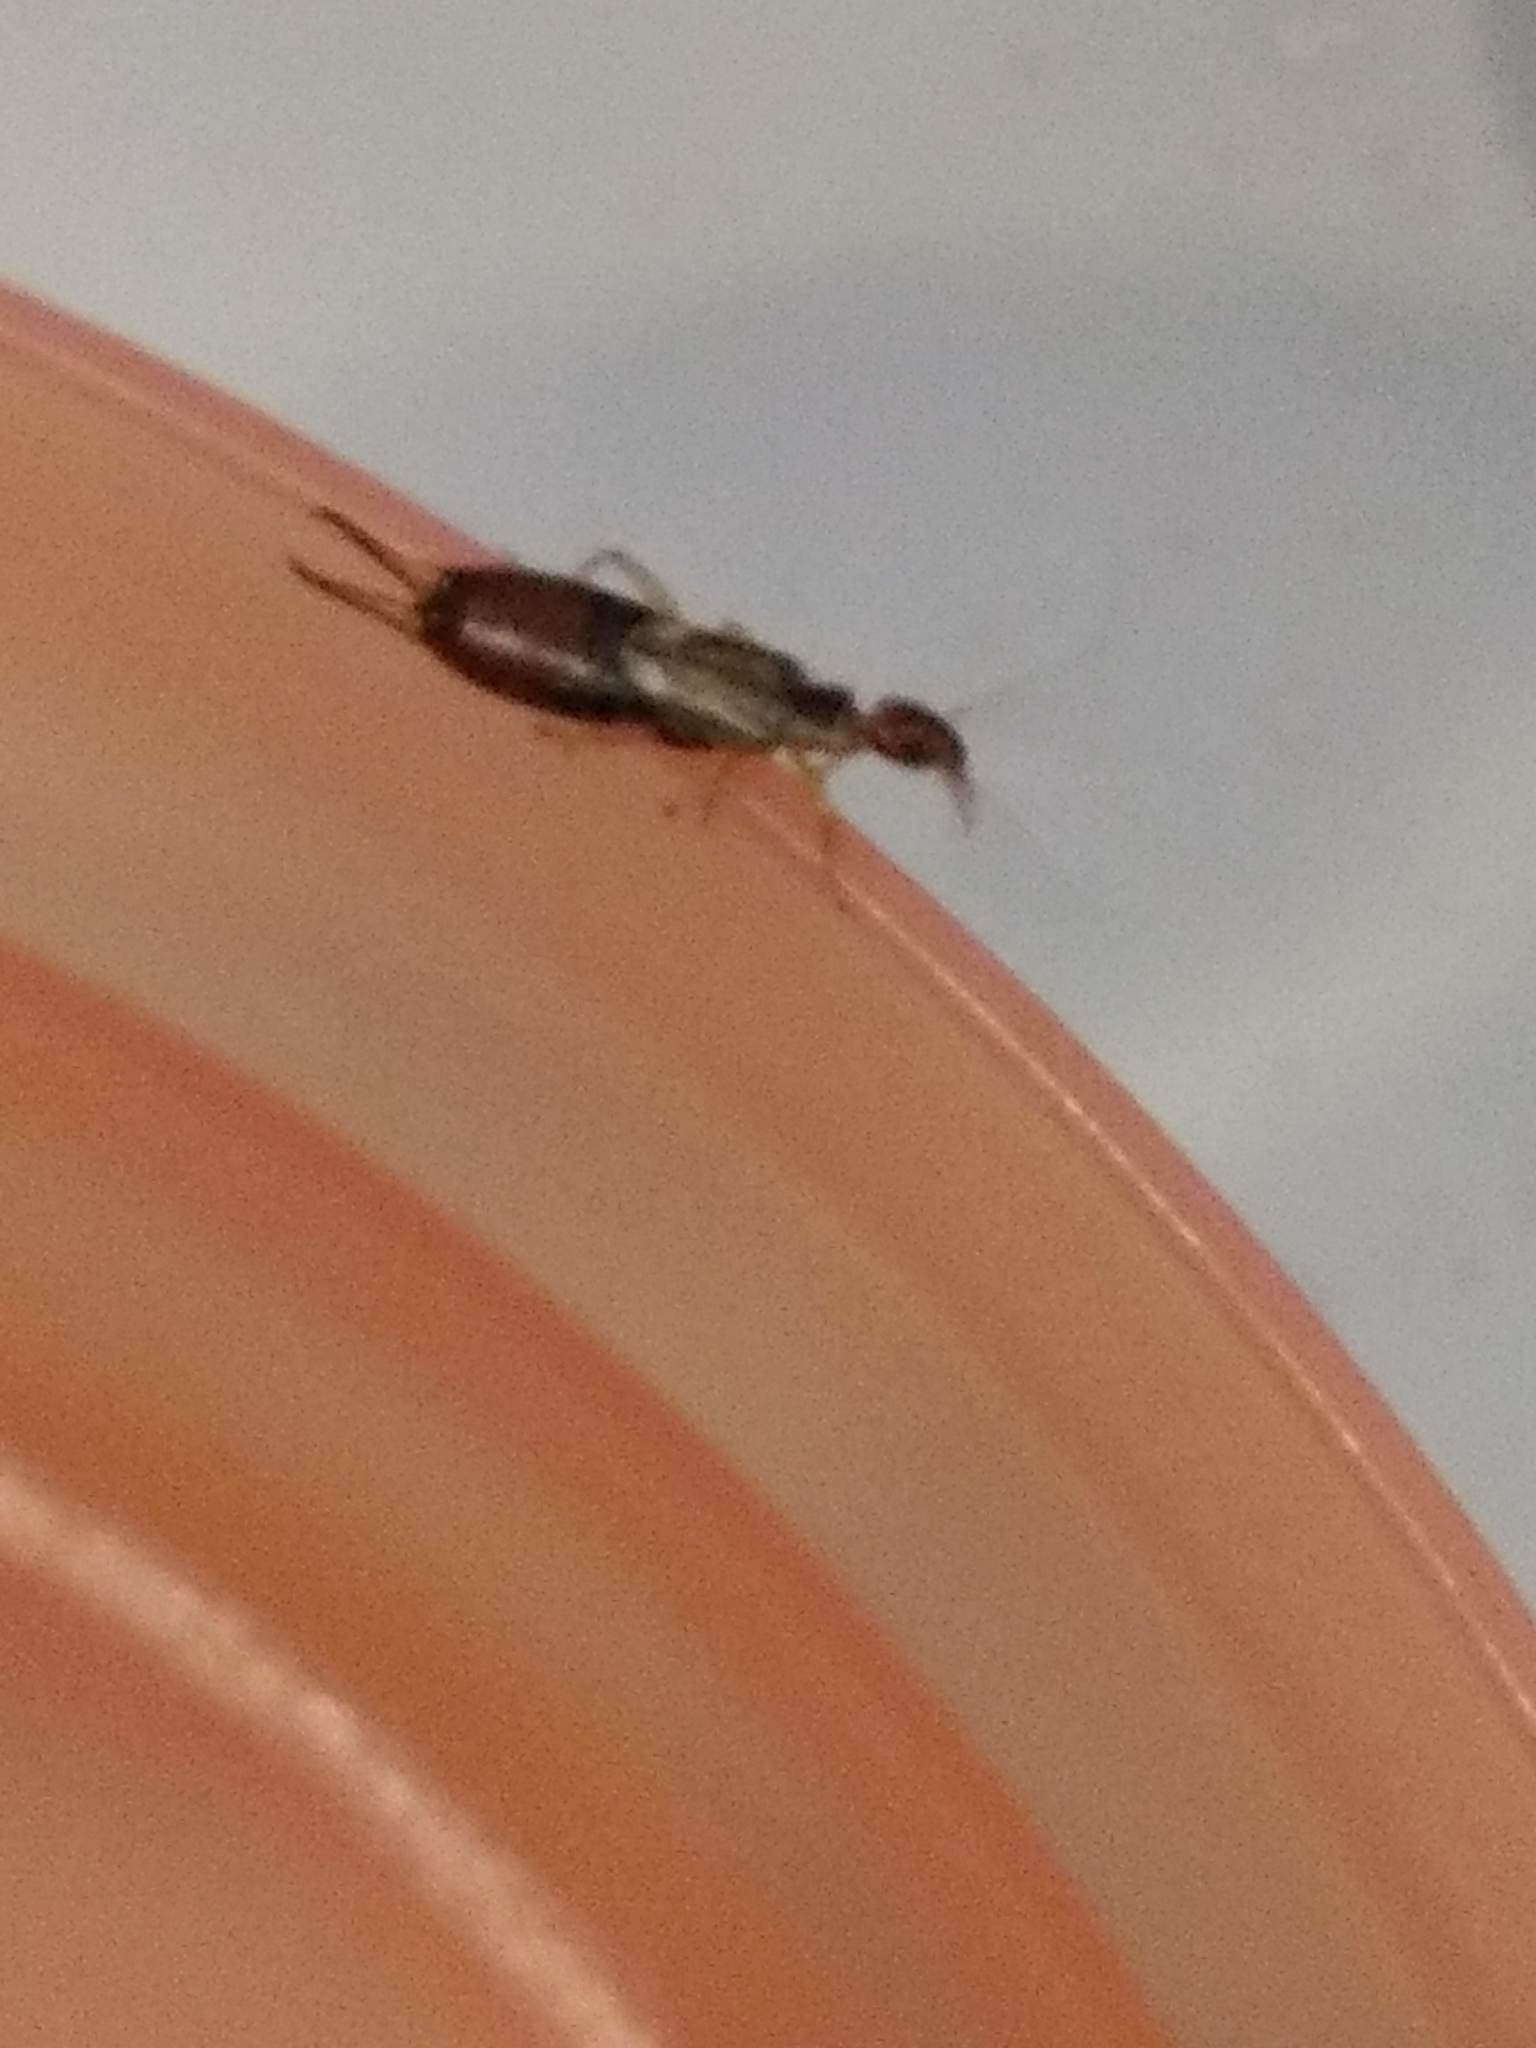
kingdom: Animalia
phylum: Arthropoda
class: Insecta
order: Dermaptera
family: Forficulidae
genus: Forficula
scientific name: Forficula
